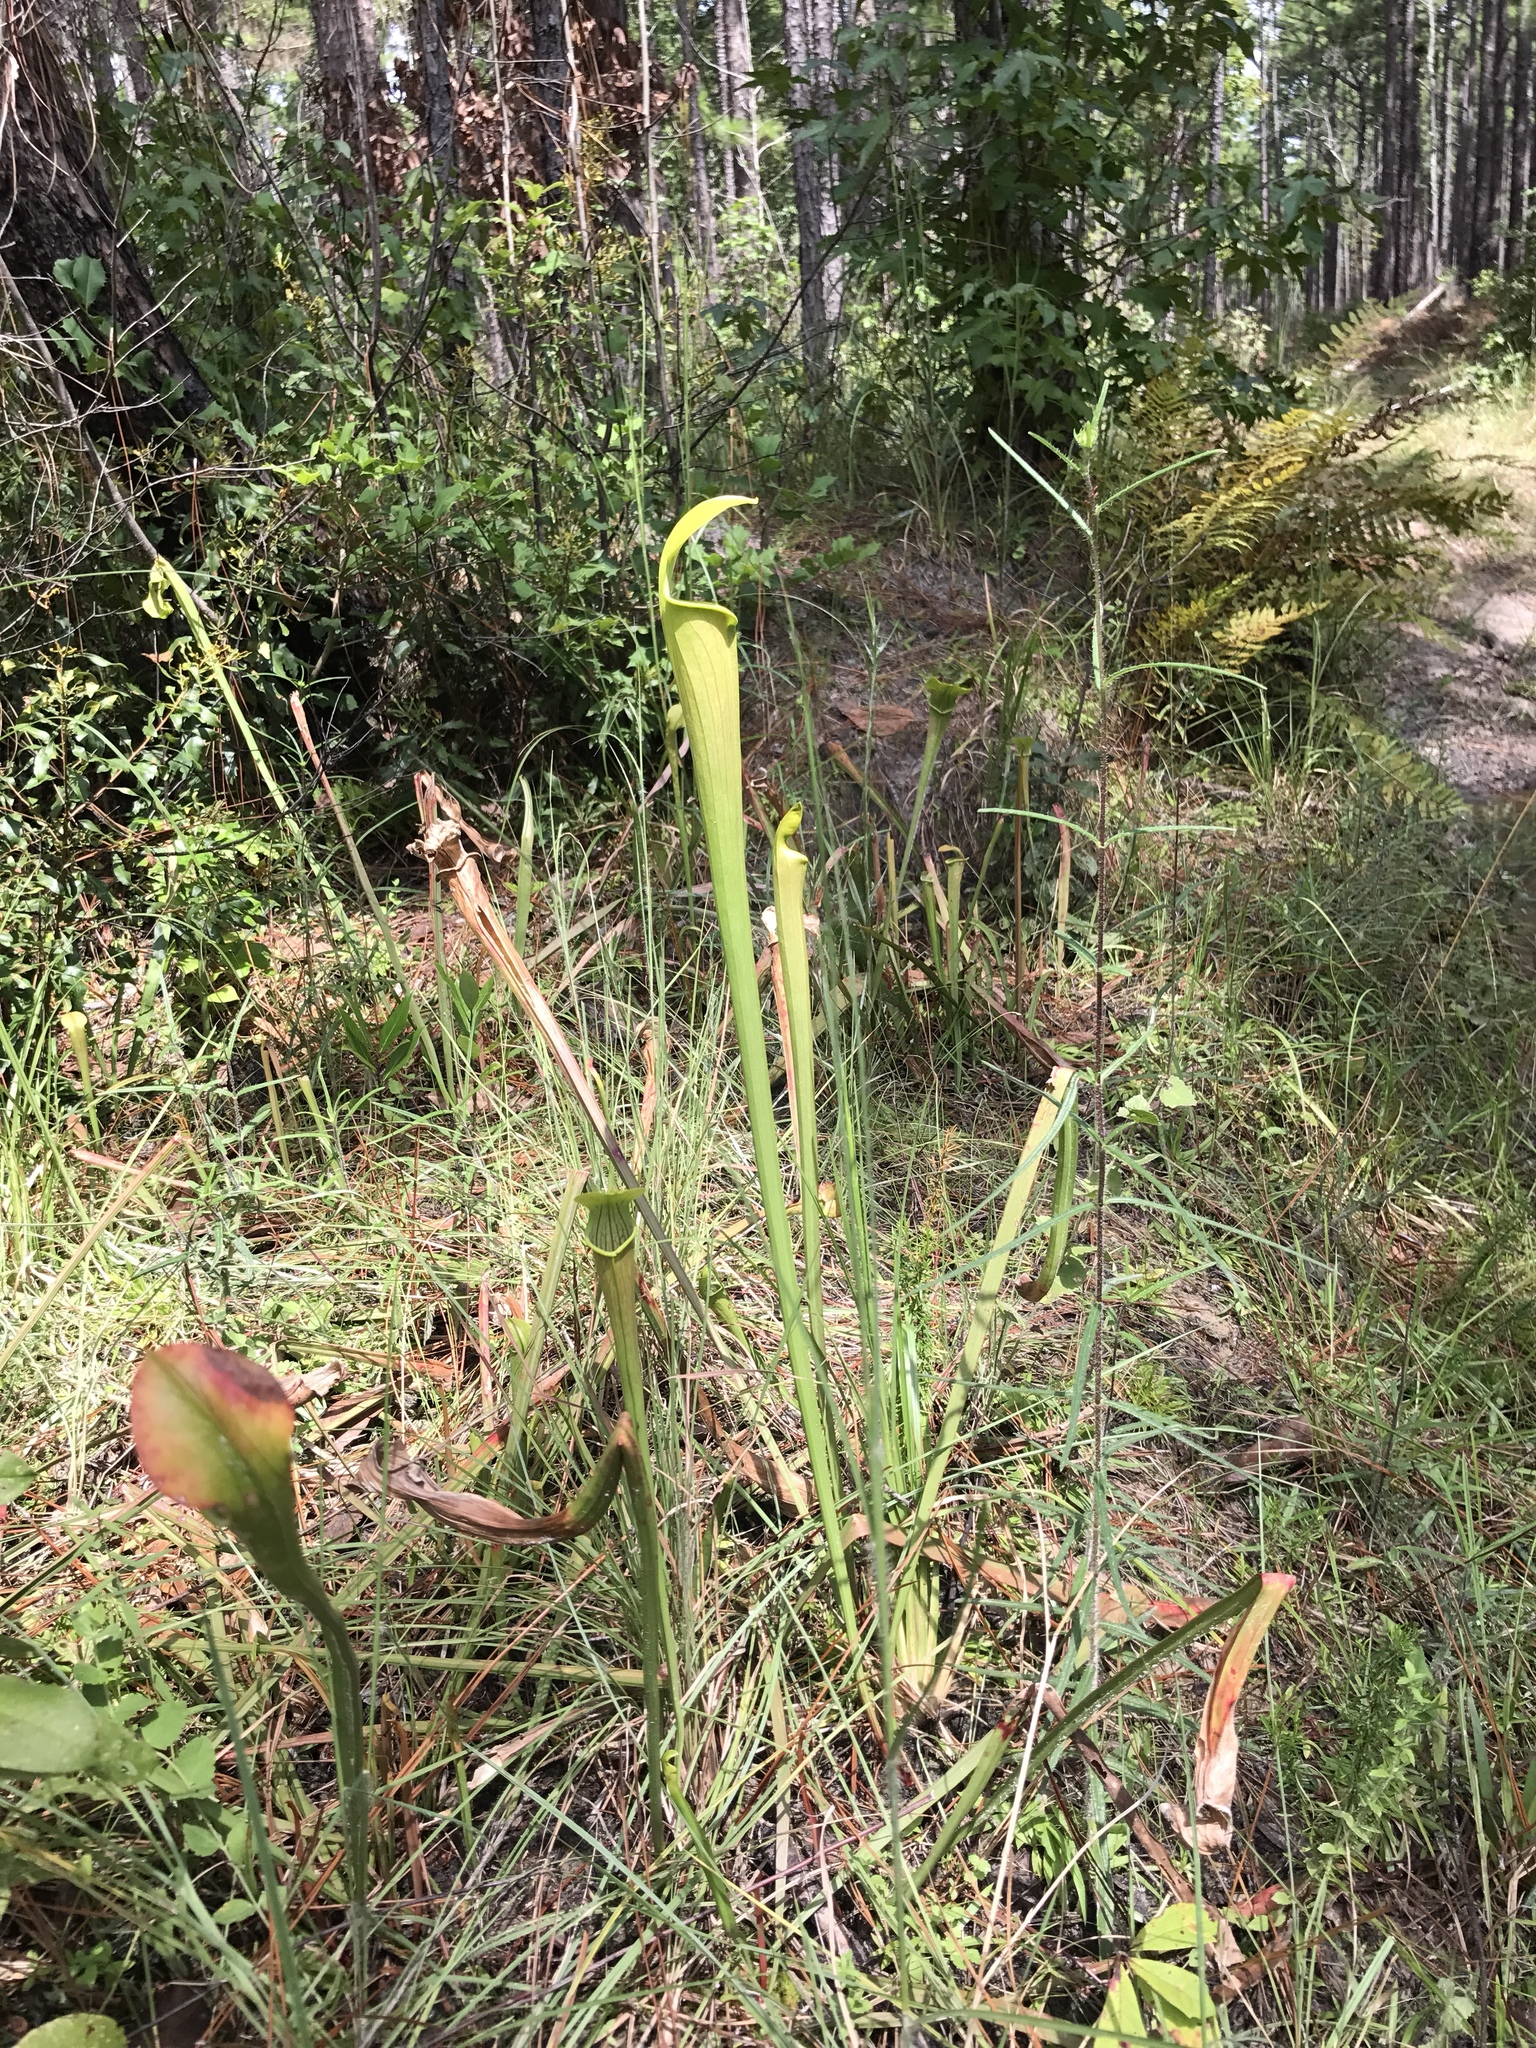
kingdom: Plantae
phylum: Tracheophyta
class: Magnoliopsida
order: Ericales
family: Sarraceniaceae
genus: Sarracenia
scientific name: Sarracenia alata
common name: Yellow trumpets
